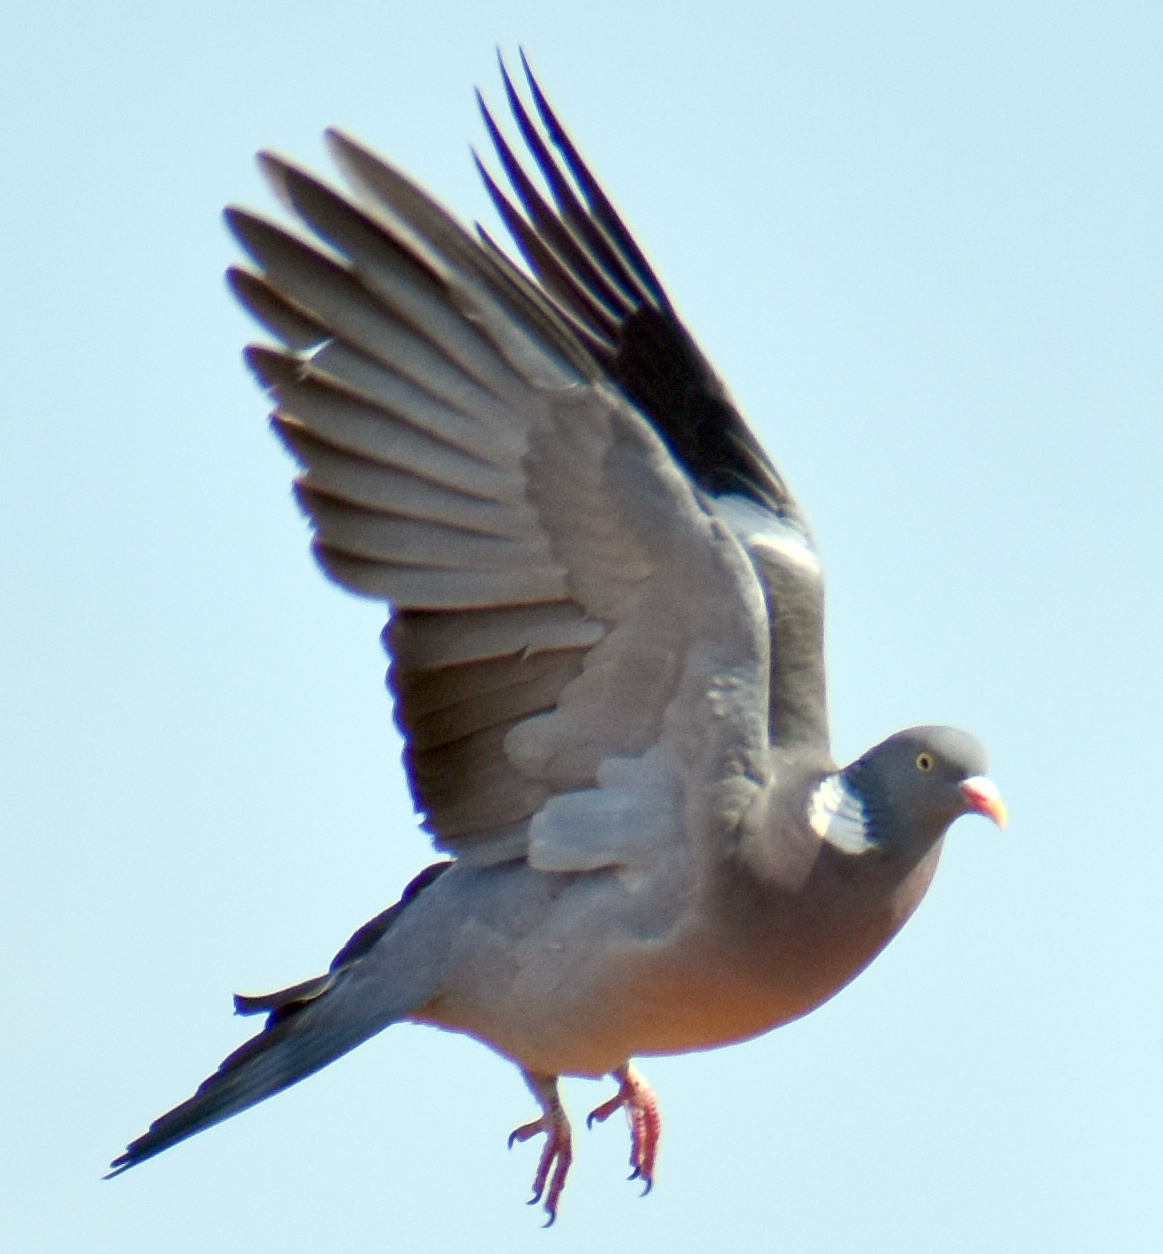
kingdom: Animalia
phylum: Chordata
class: Aves
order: Columbiformes
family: Columbidae
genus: Columba
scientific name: Columba palumbus
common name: Common wood pigeon
